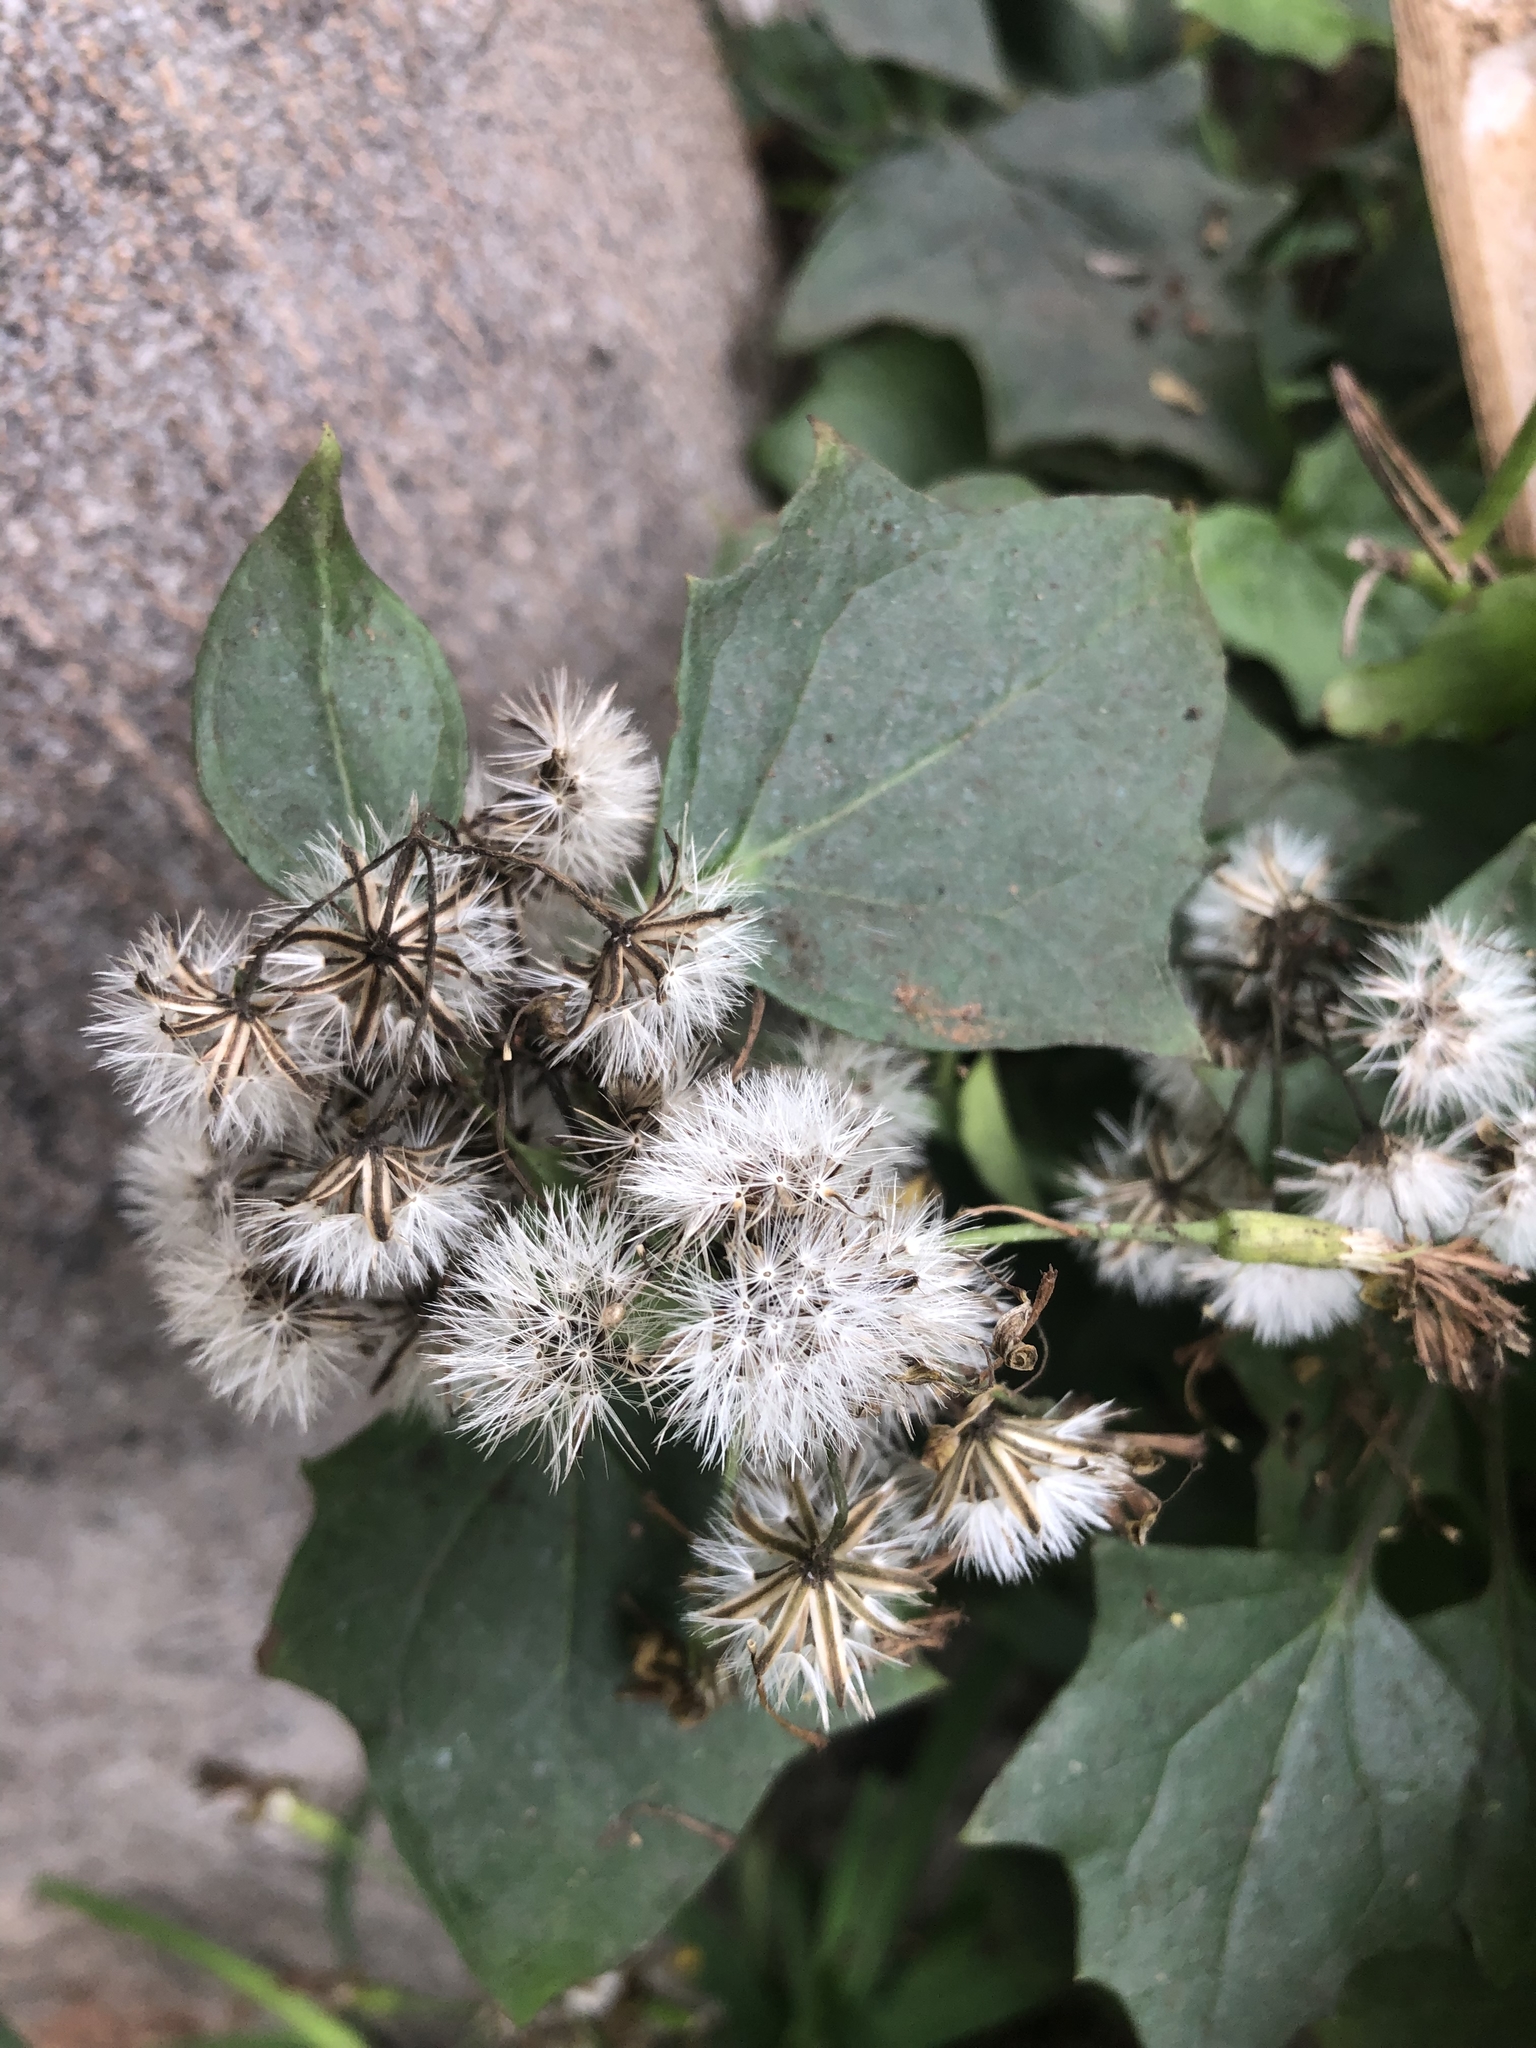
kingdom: Plantae
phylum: Tracheophyta
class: Magnoliopsida
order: Asterales
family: Asteraceae
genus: Delairea
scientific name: Delairea odorata
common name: Cape-ivy
